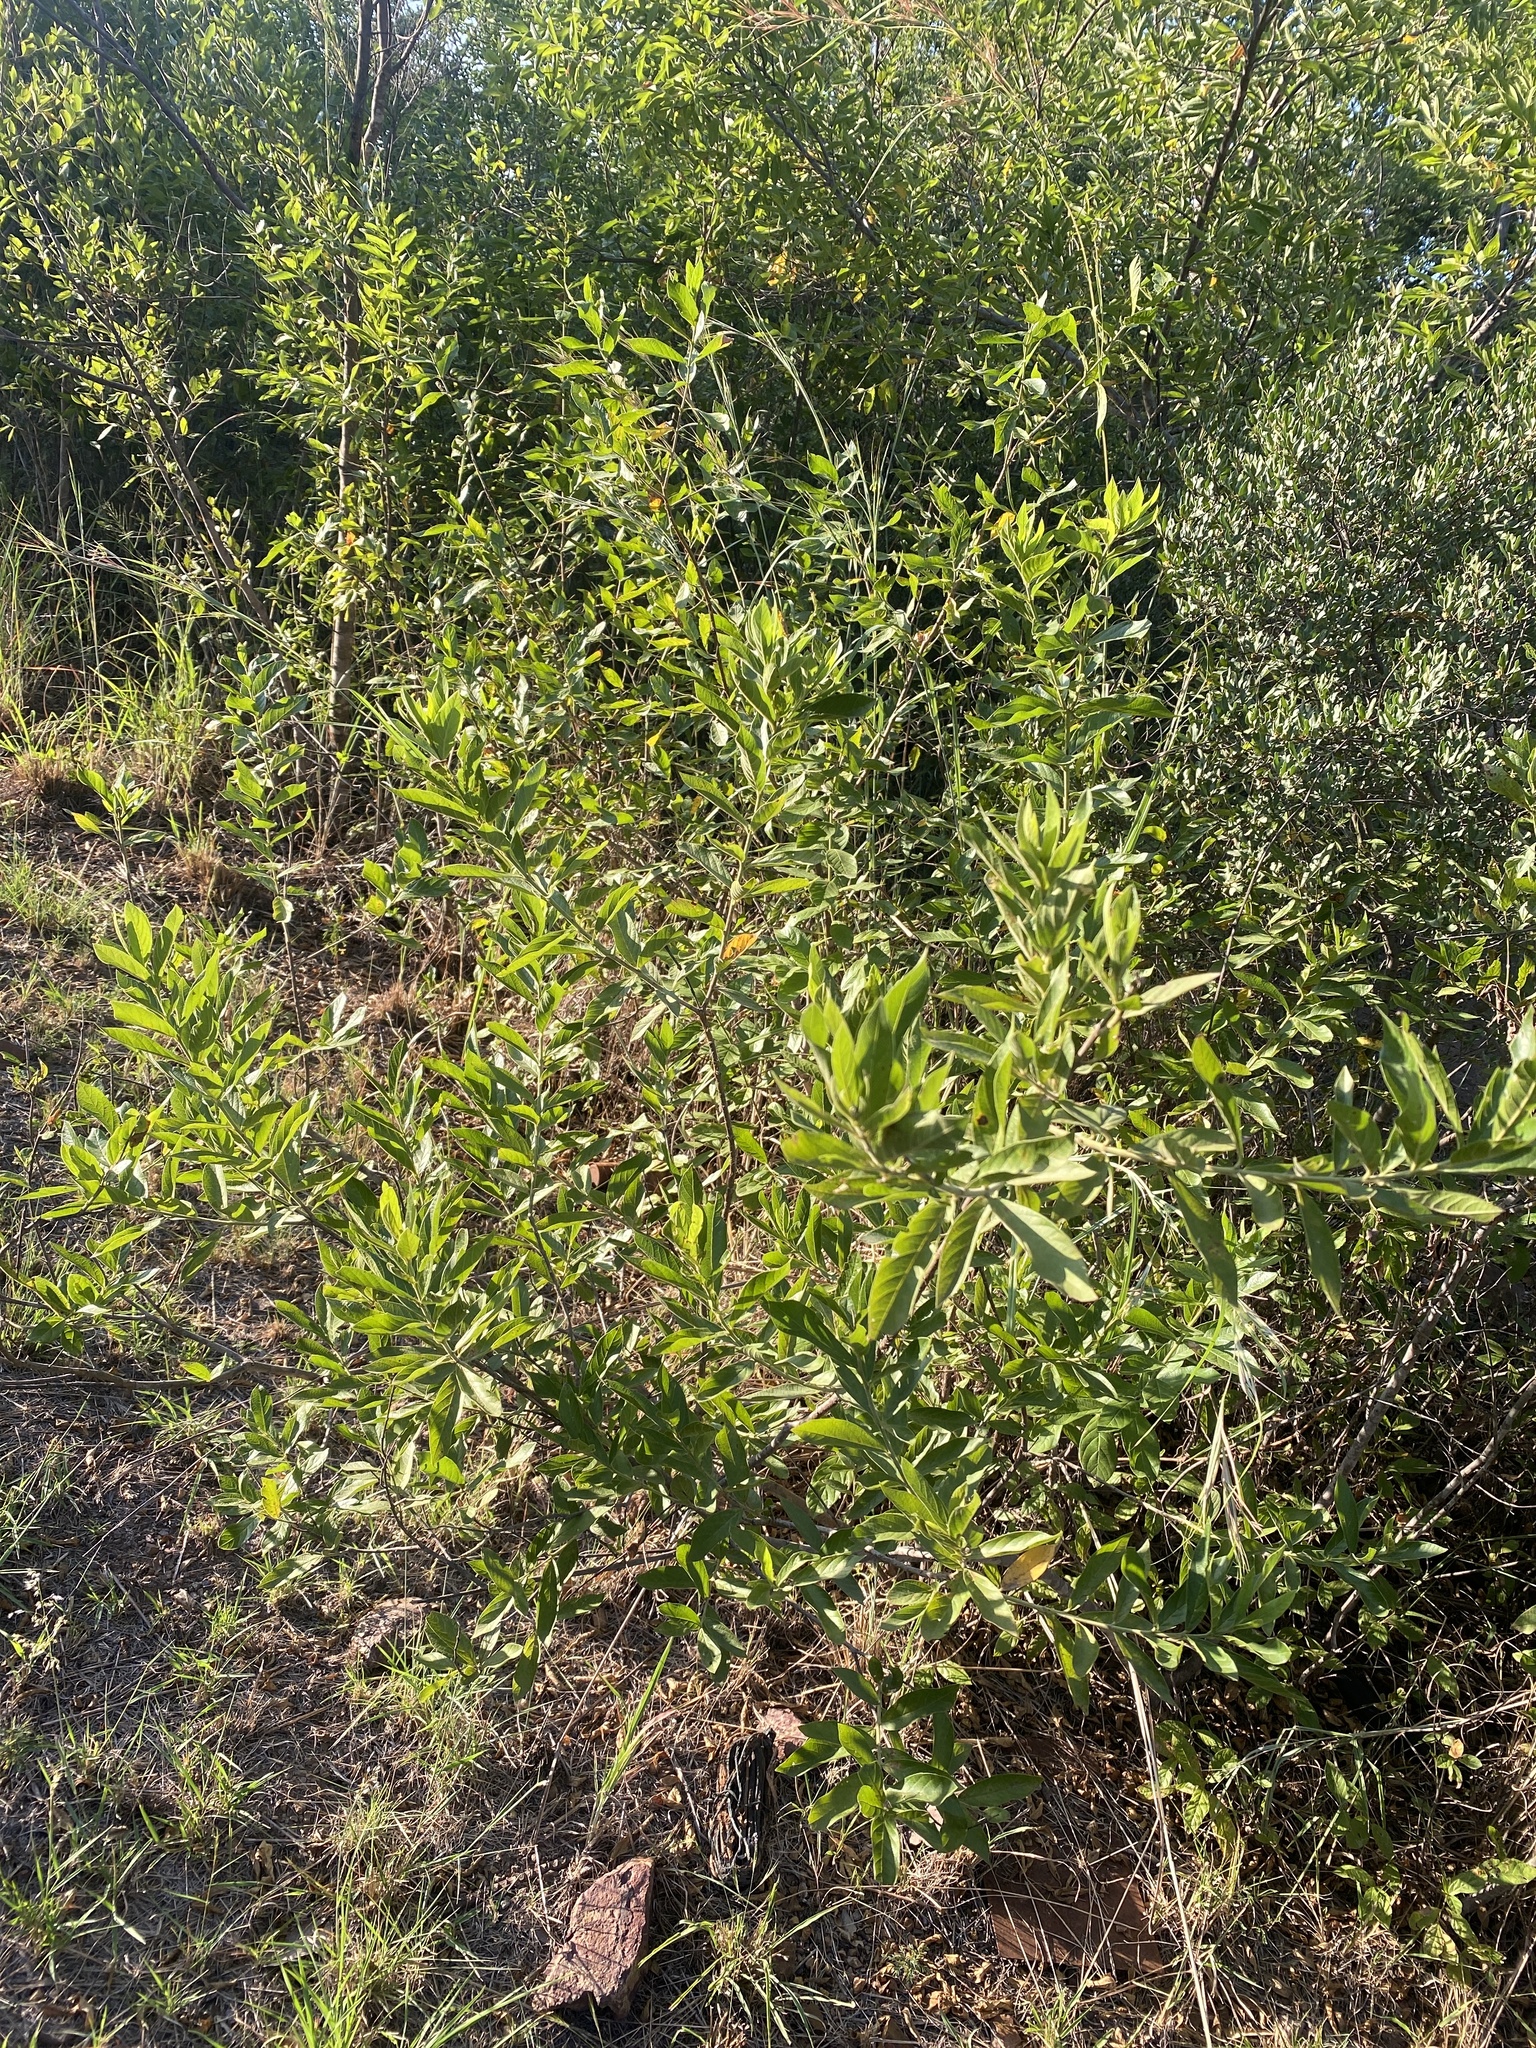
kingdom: Plantae
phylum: Tracheophyta
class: Magnoliopsida
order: Myrtales
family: Combretaceae
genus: Combretum
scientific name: Combretum erythrophyllum
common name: Bush-willow
